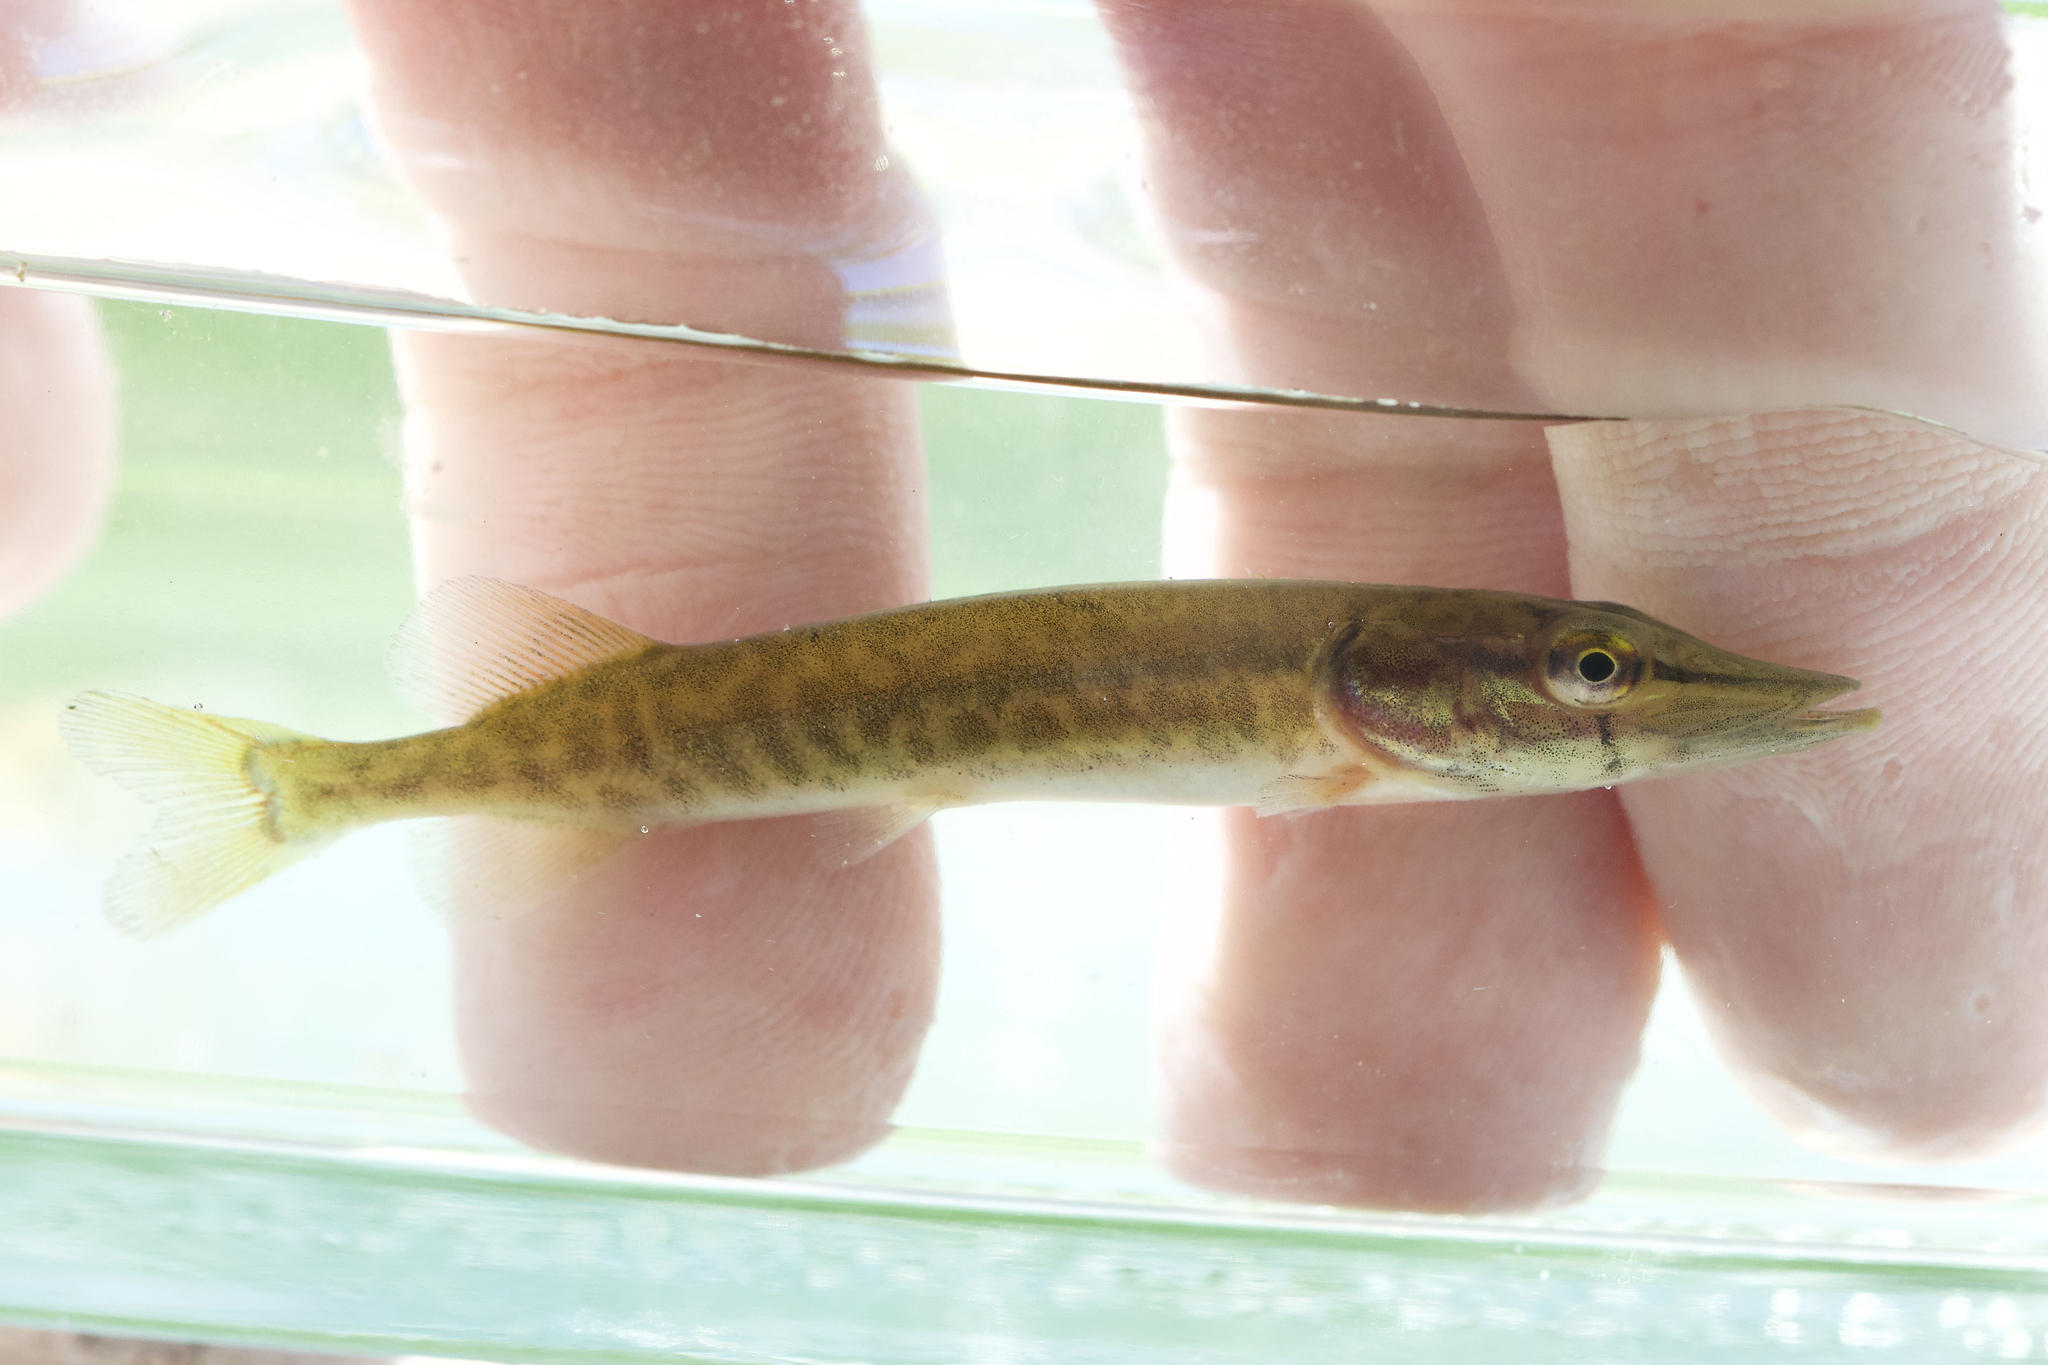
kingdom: Animalia
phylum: Chordata
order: Esociformes
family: Esocidae
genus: Esox
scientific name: Esox lucius
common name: Northern pike
